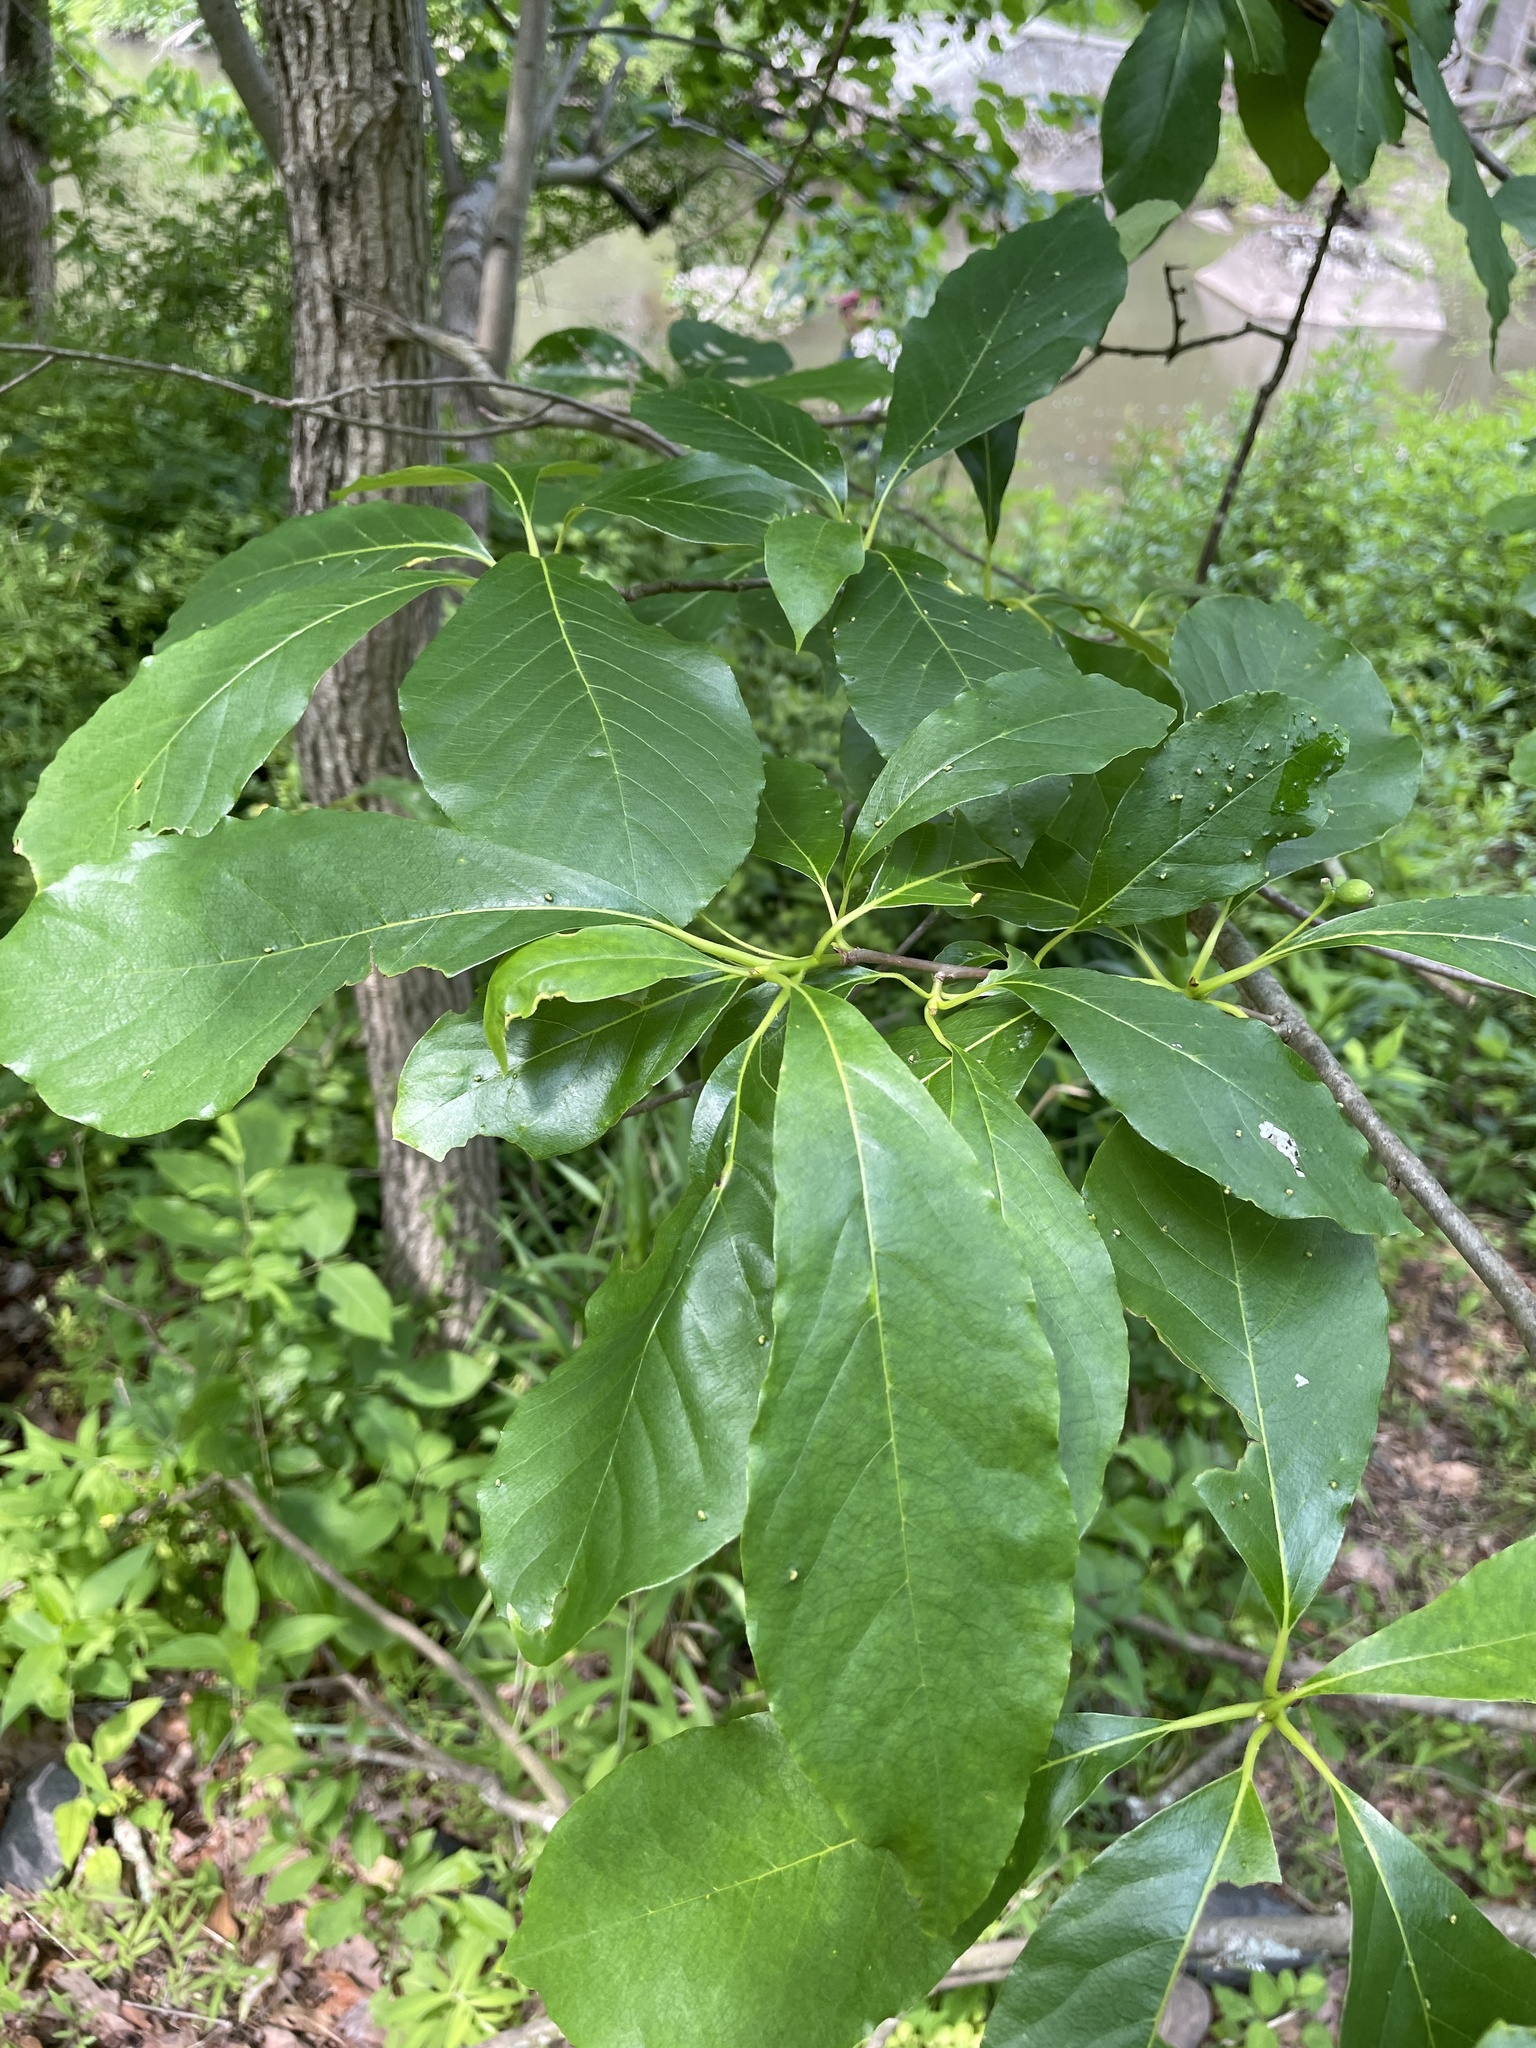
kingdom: Plantae
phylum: Tracheophyta
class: Magnoliopsida
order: Cornales
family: Nyssaceae
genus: Nyssa
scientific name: Nyssa sylvatica
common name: Black tupelo
